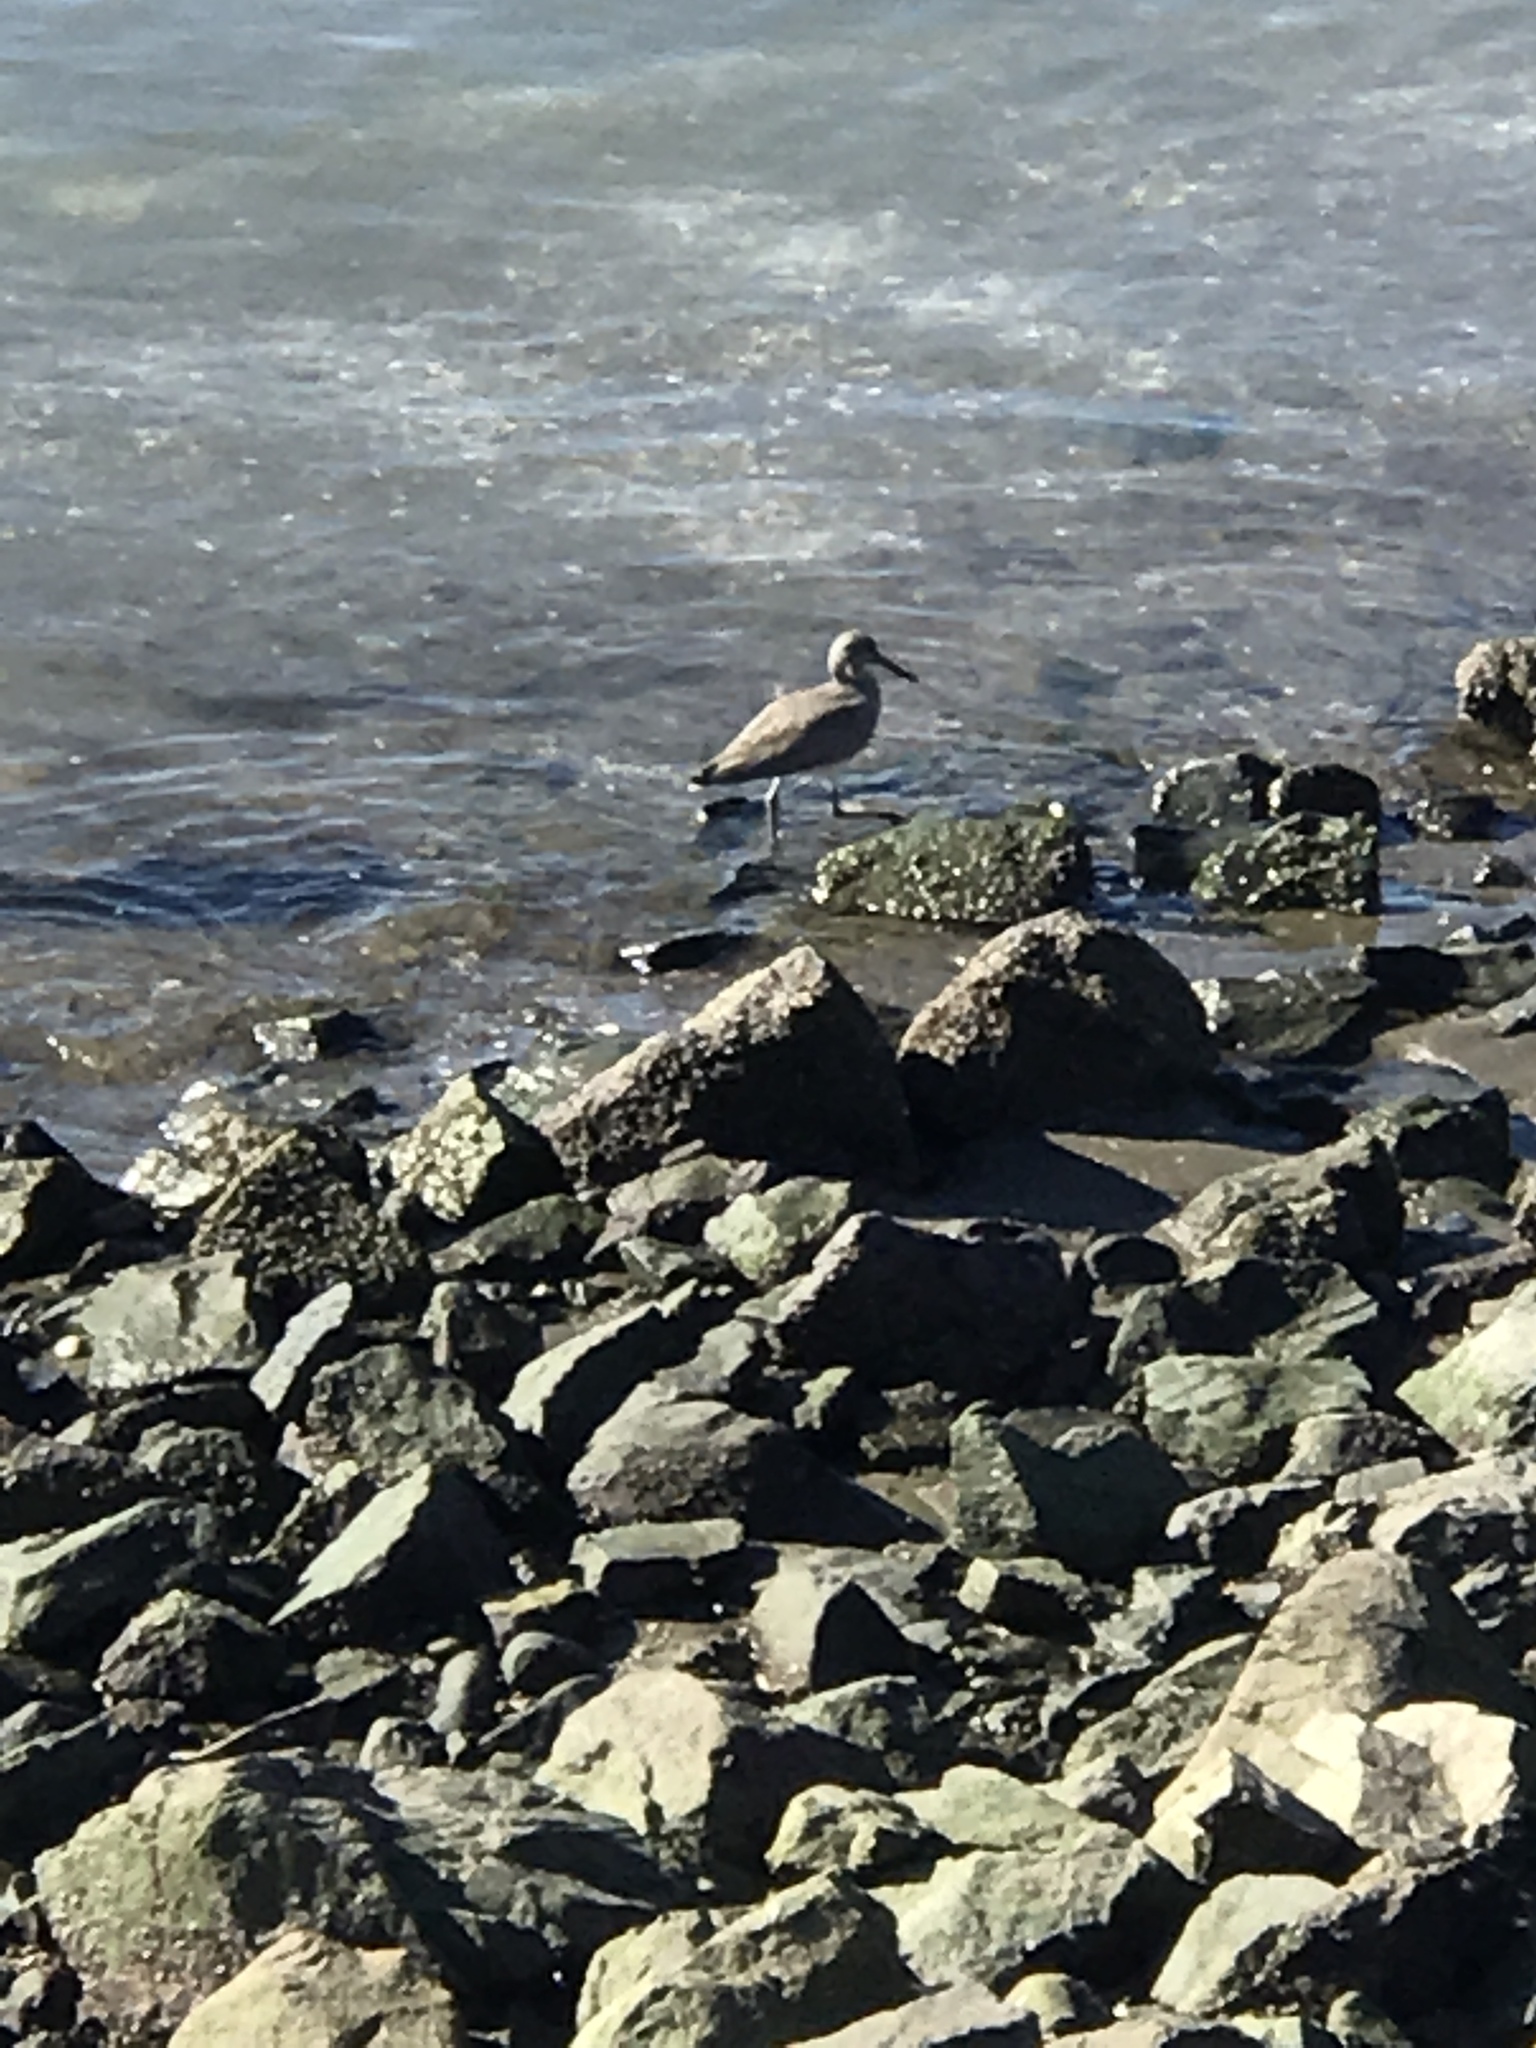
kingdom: Animalia
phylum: Chordata
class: Aves
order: Charadriiformes
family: Scolopacidae
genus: Tringa
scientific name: Tringa semipalmata
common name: Willet
